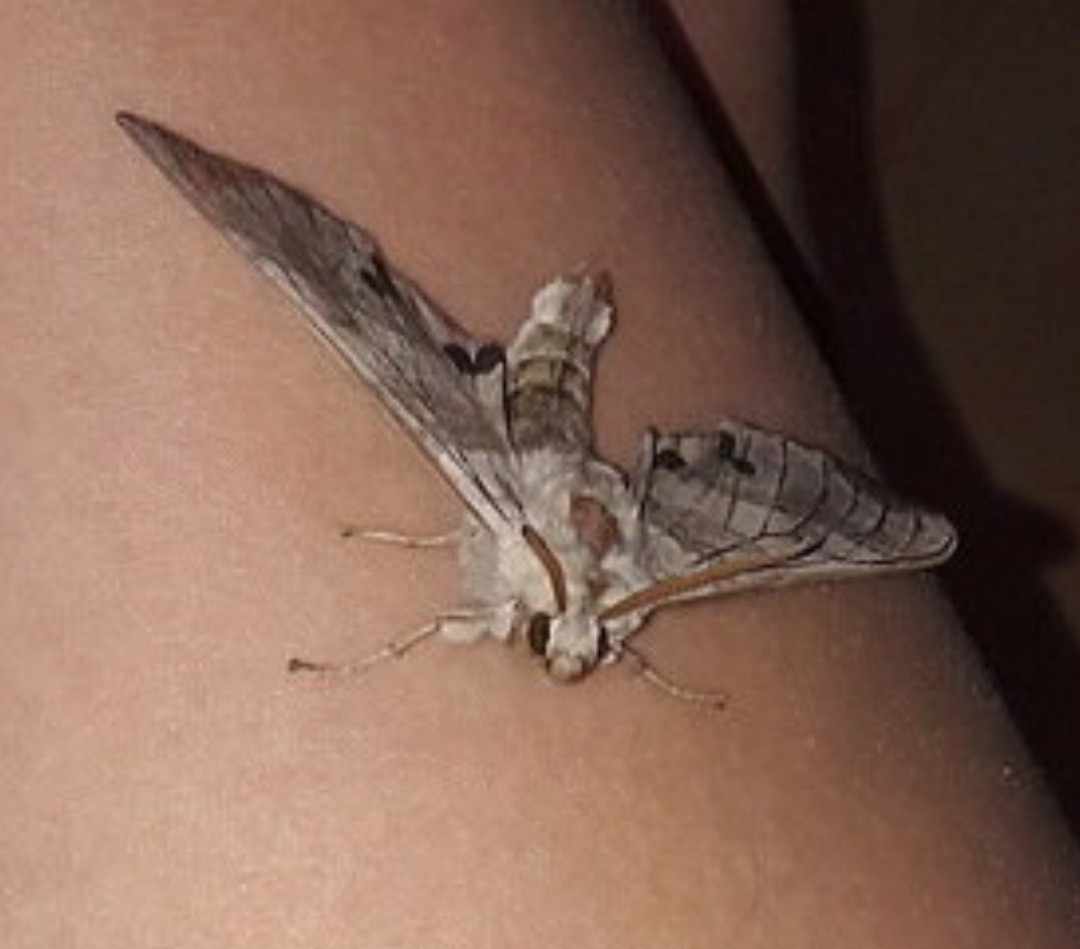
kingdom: Animalia
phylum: Arthropoda
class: Insecta
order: Lepidoptera
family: Sphingidae
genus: Marumba
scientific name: Marumba jankowskii
